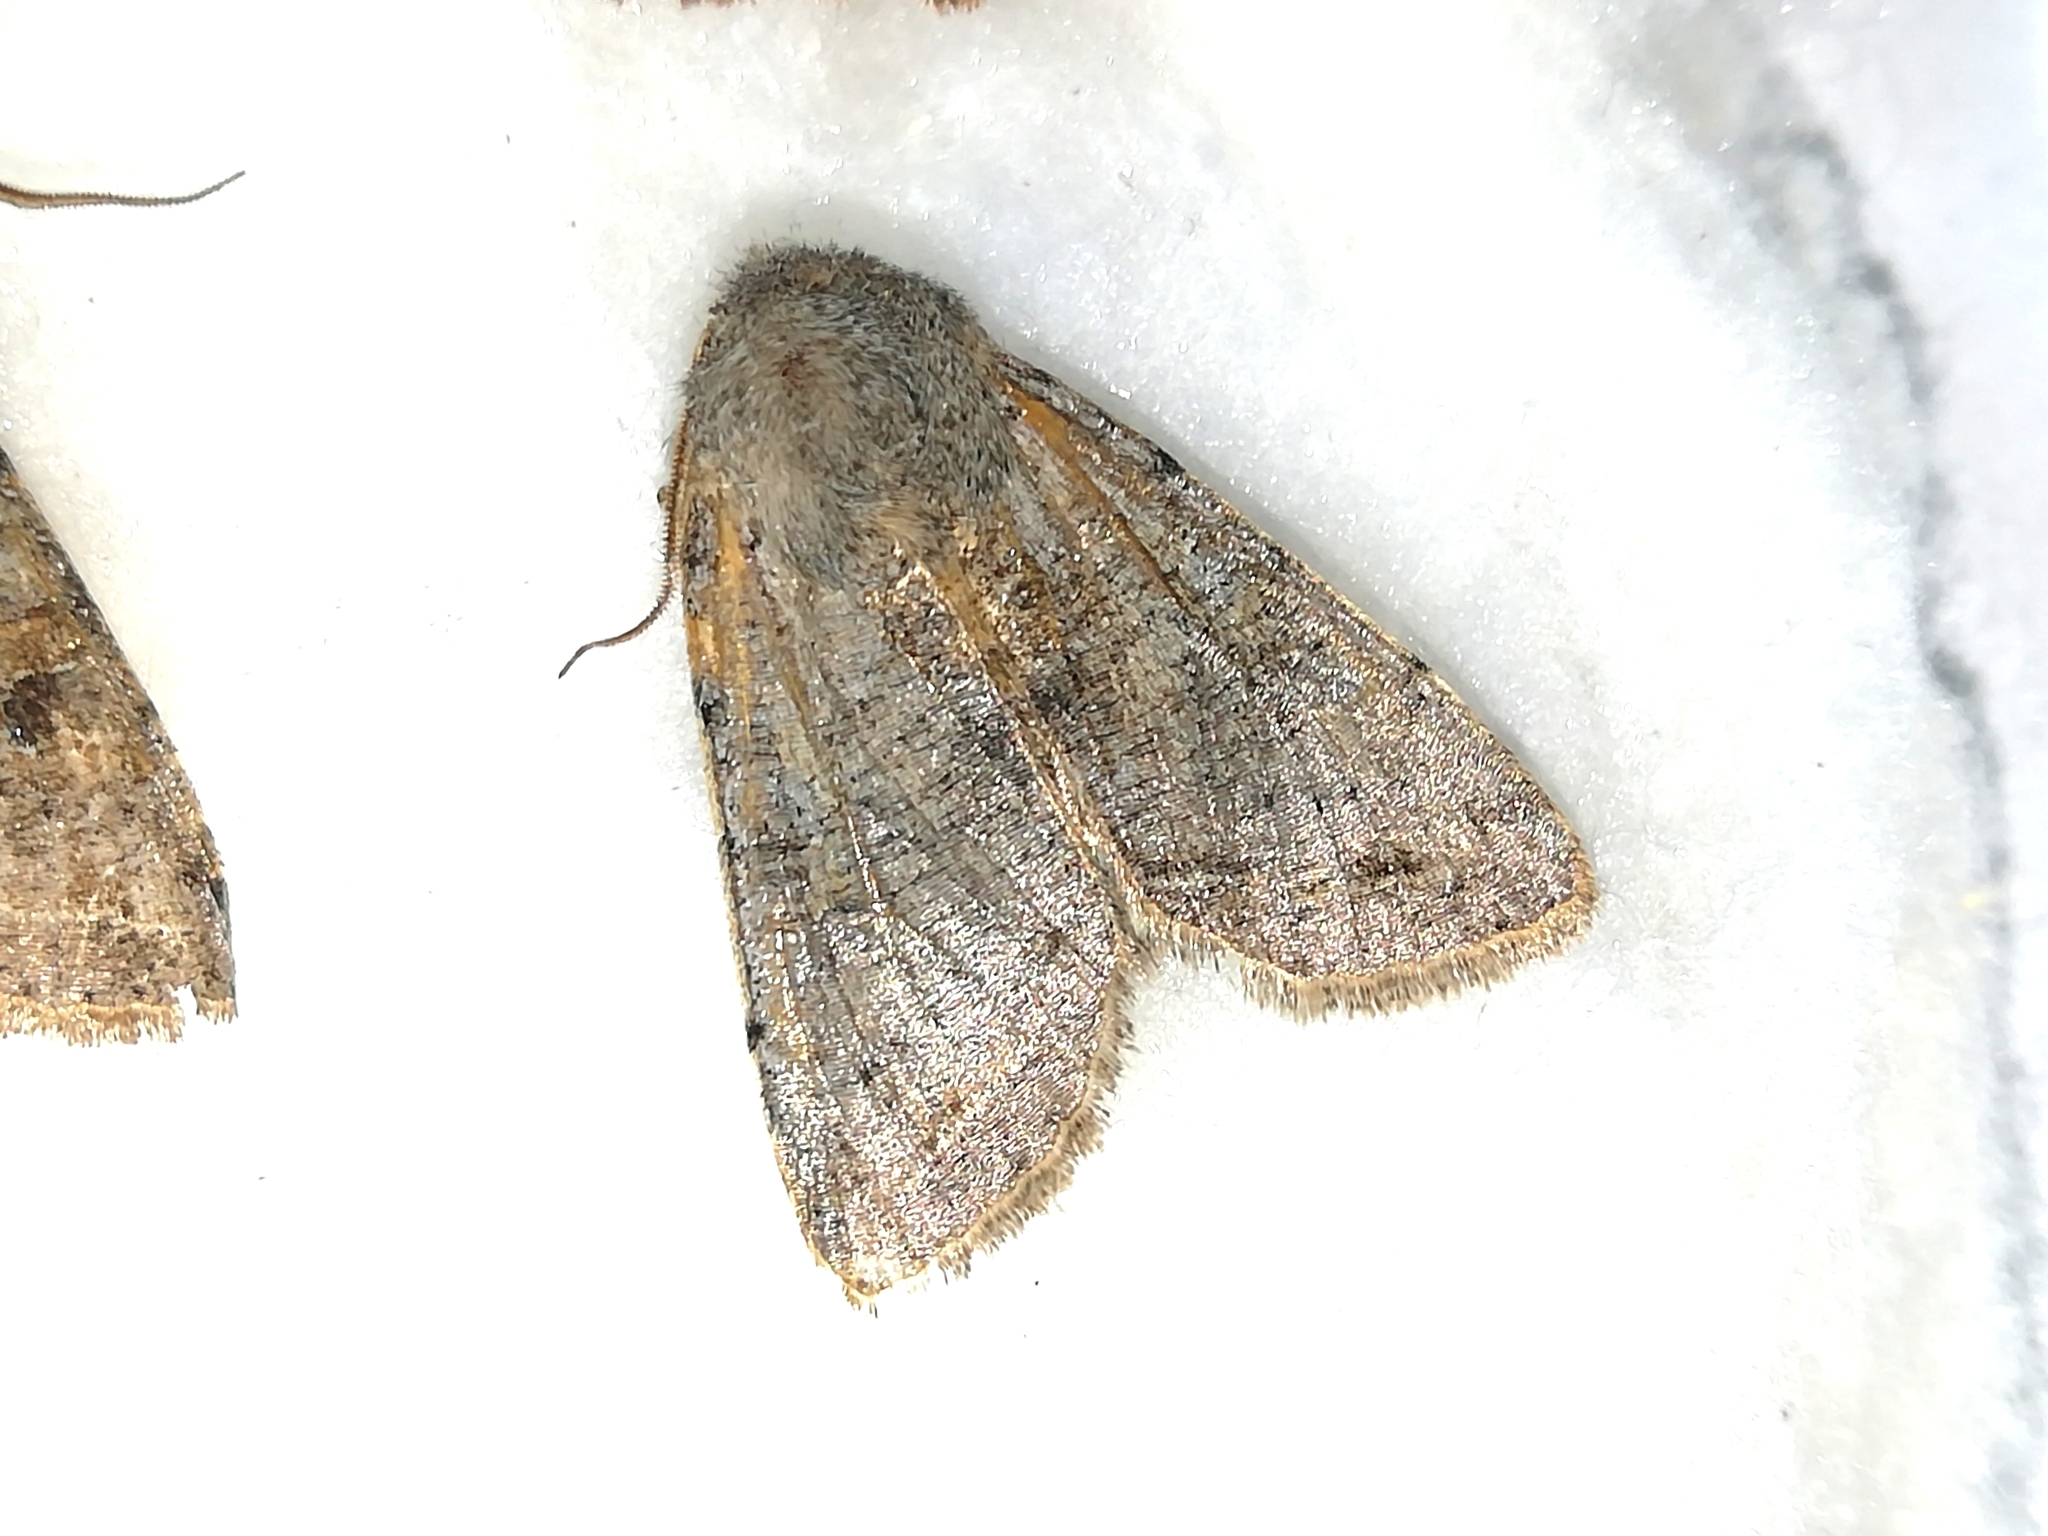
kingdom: Animalia
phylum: Arthropoda
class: Insecta
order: Lepidoptera
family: Noctuidae
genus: Orthosia
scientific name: Orthosia incerta
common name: Clouded drab
